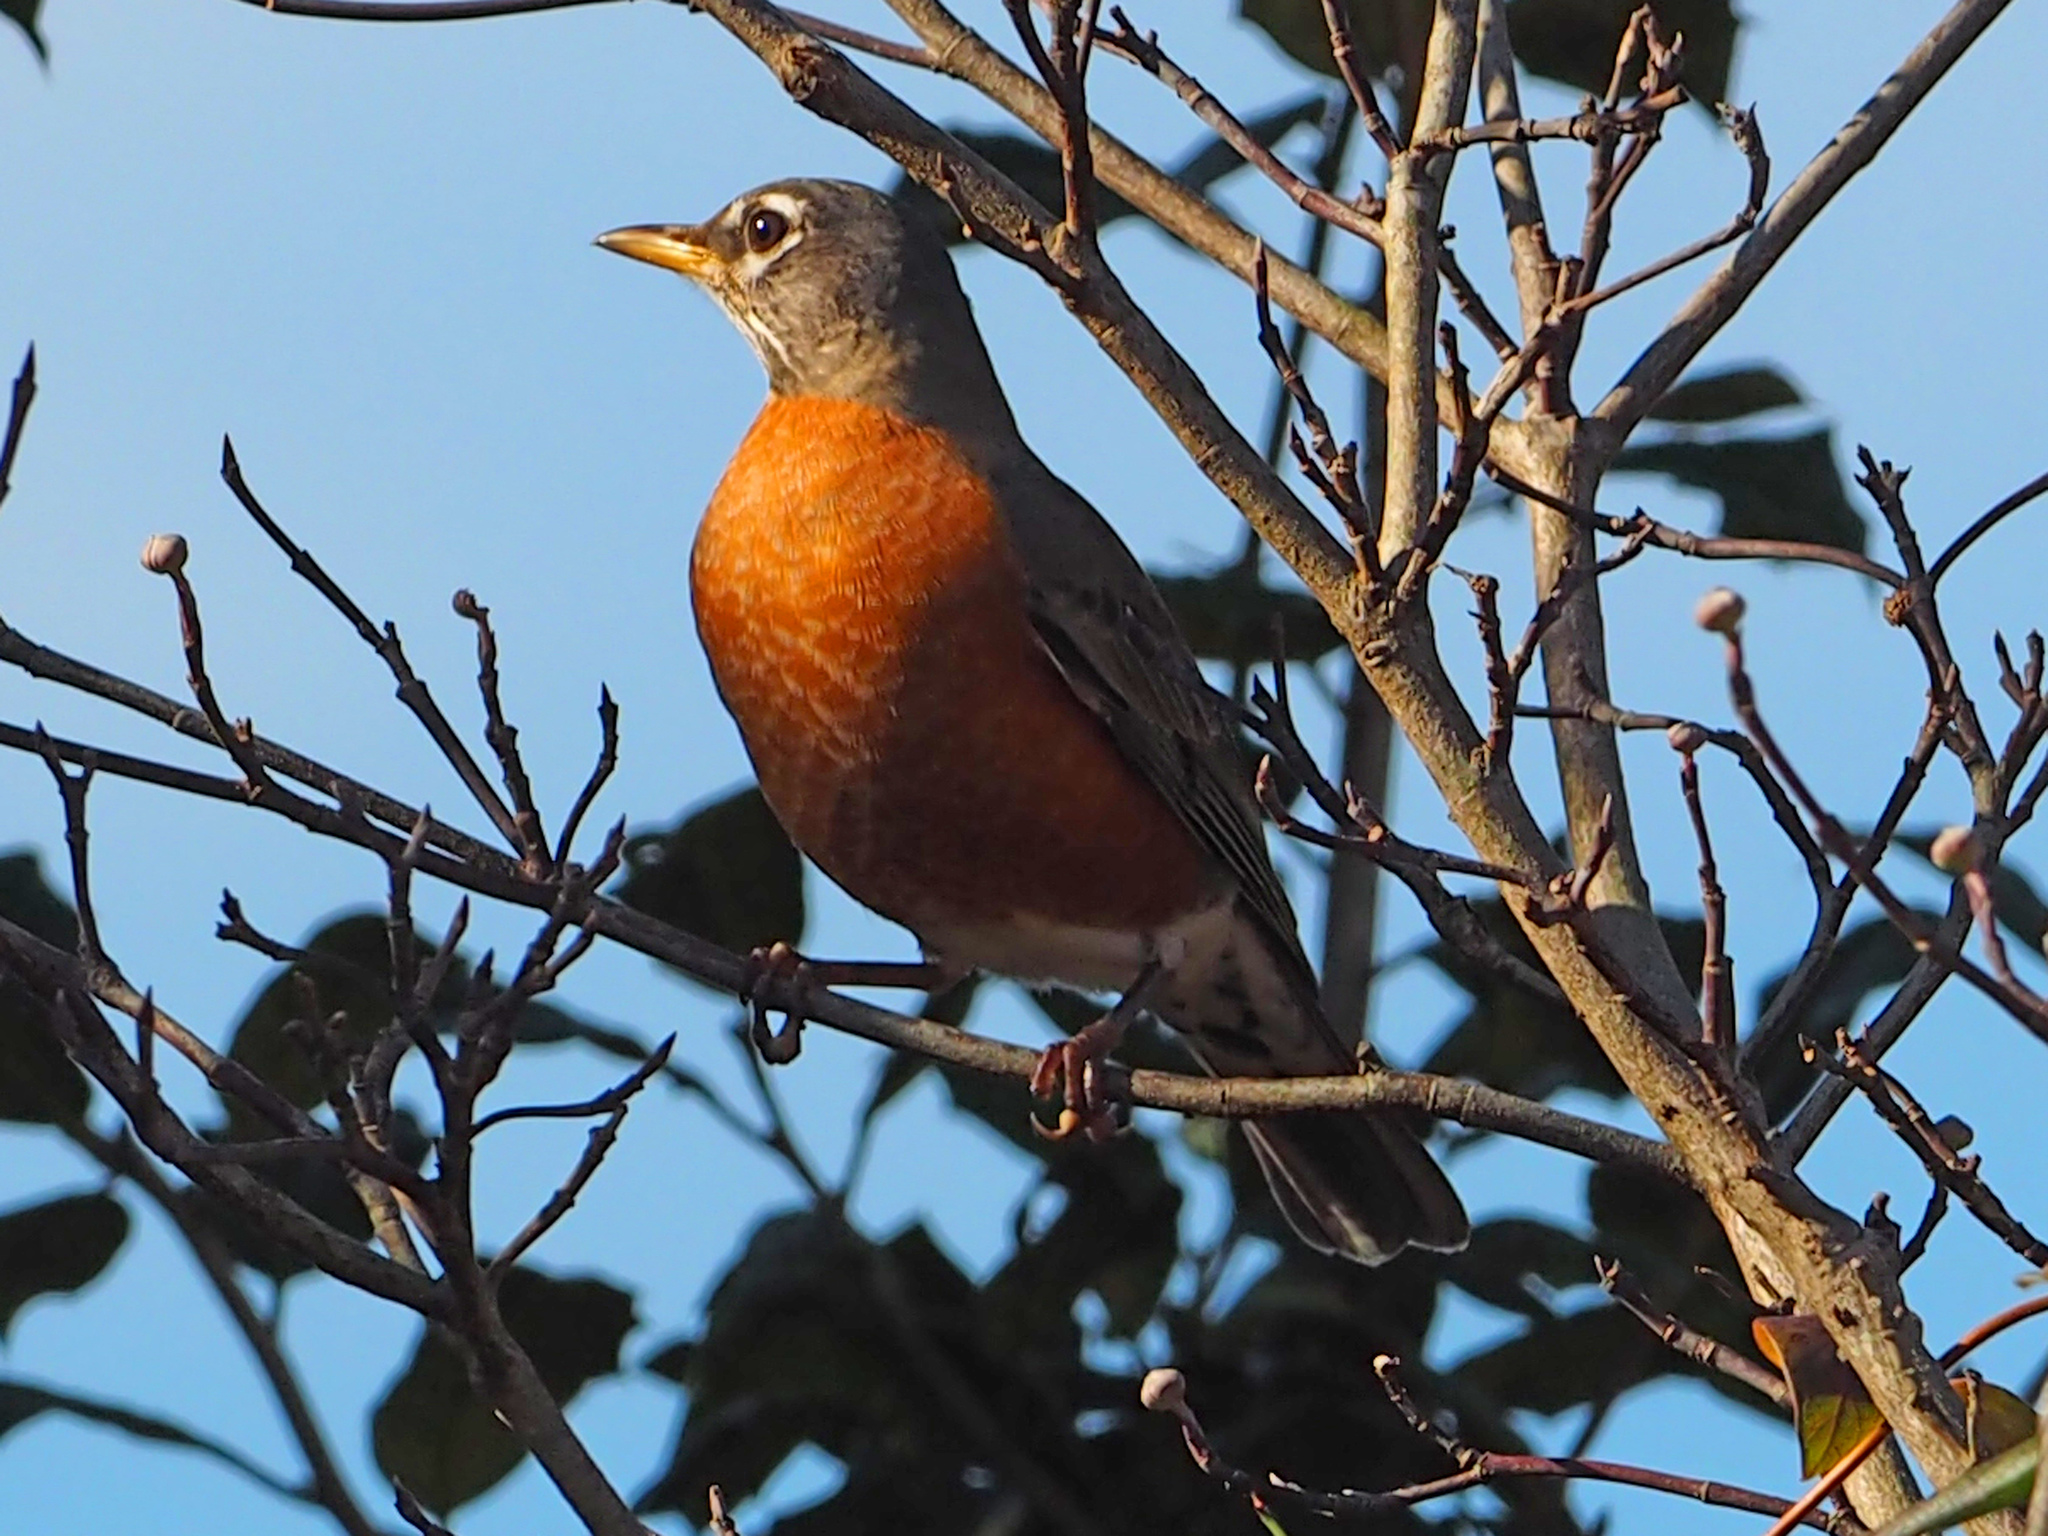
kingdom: Animalia
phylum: Chordata
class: Aves
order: Passeriformes
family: Turdidae
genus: Turdus
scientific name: Turdus migratorius
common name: American robin
